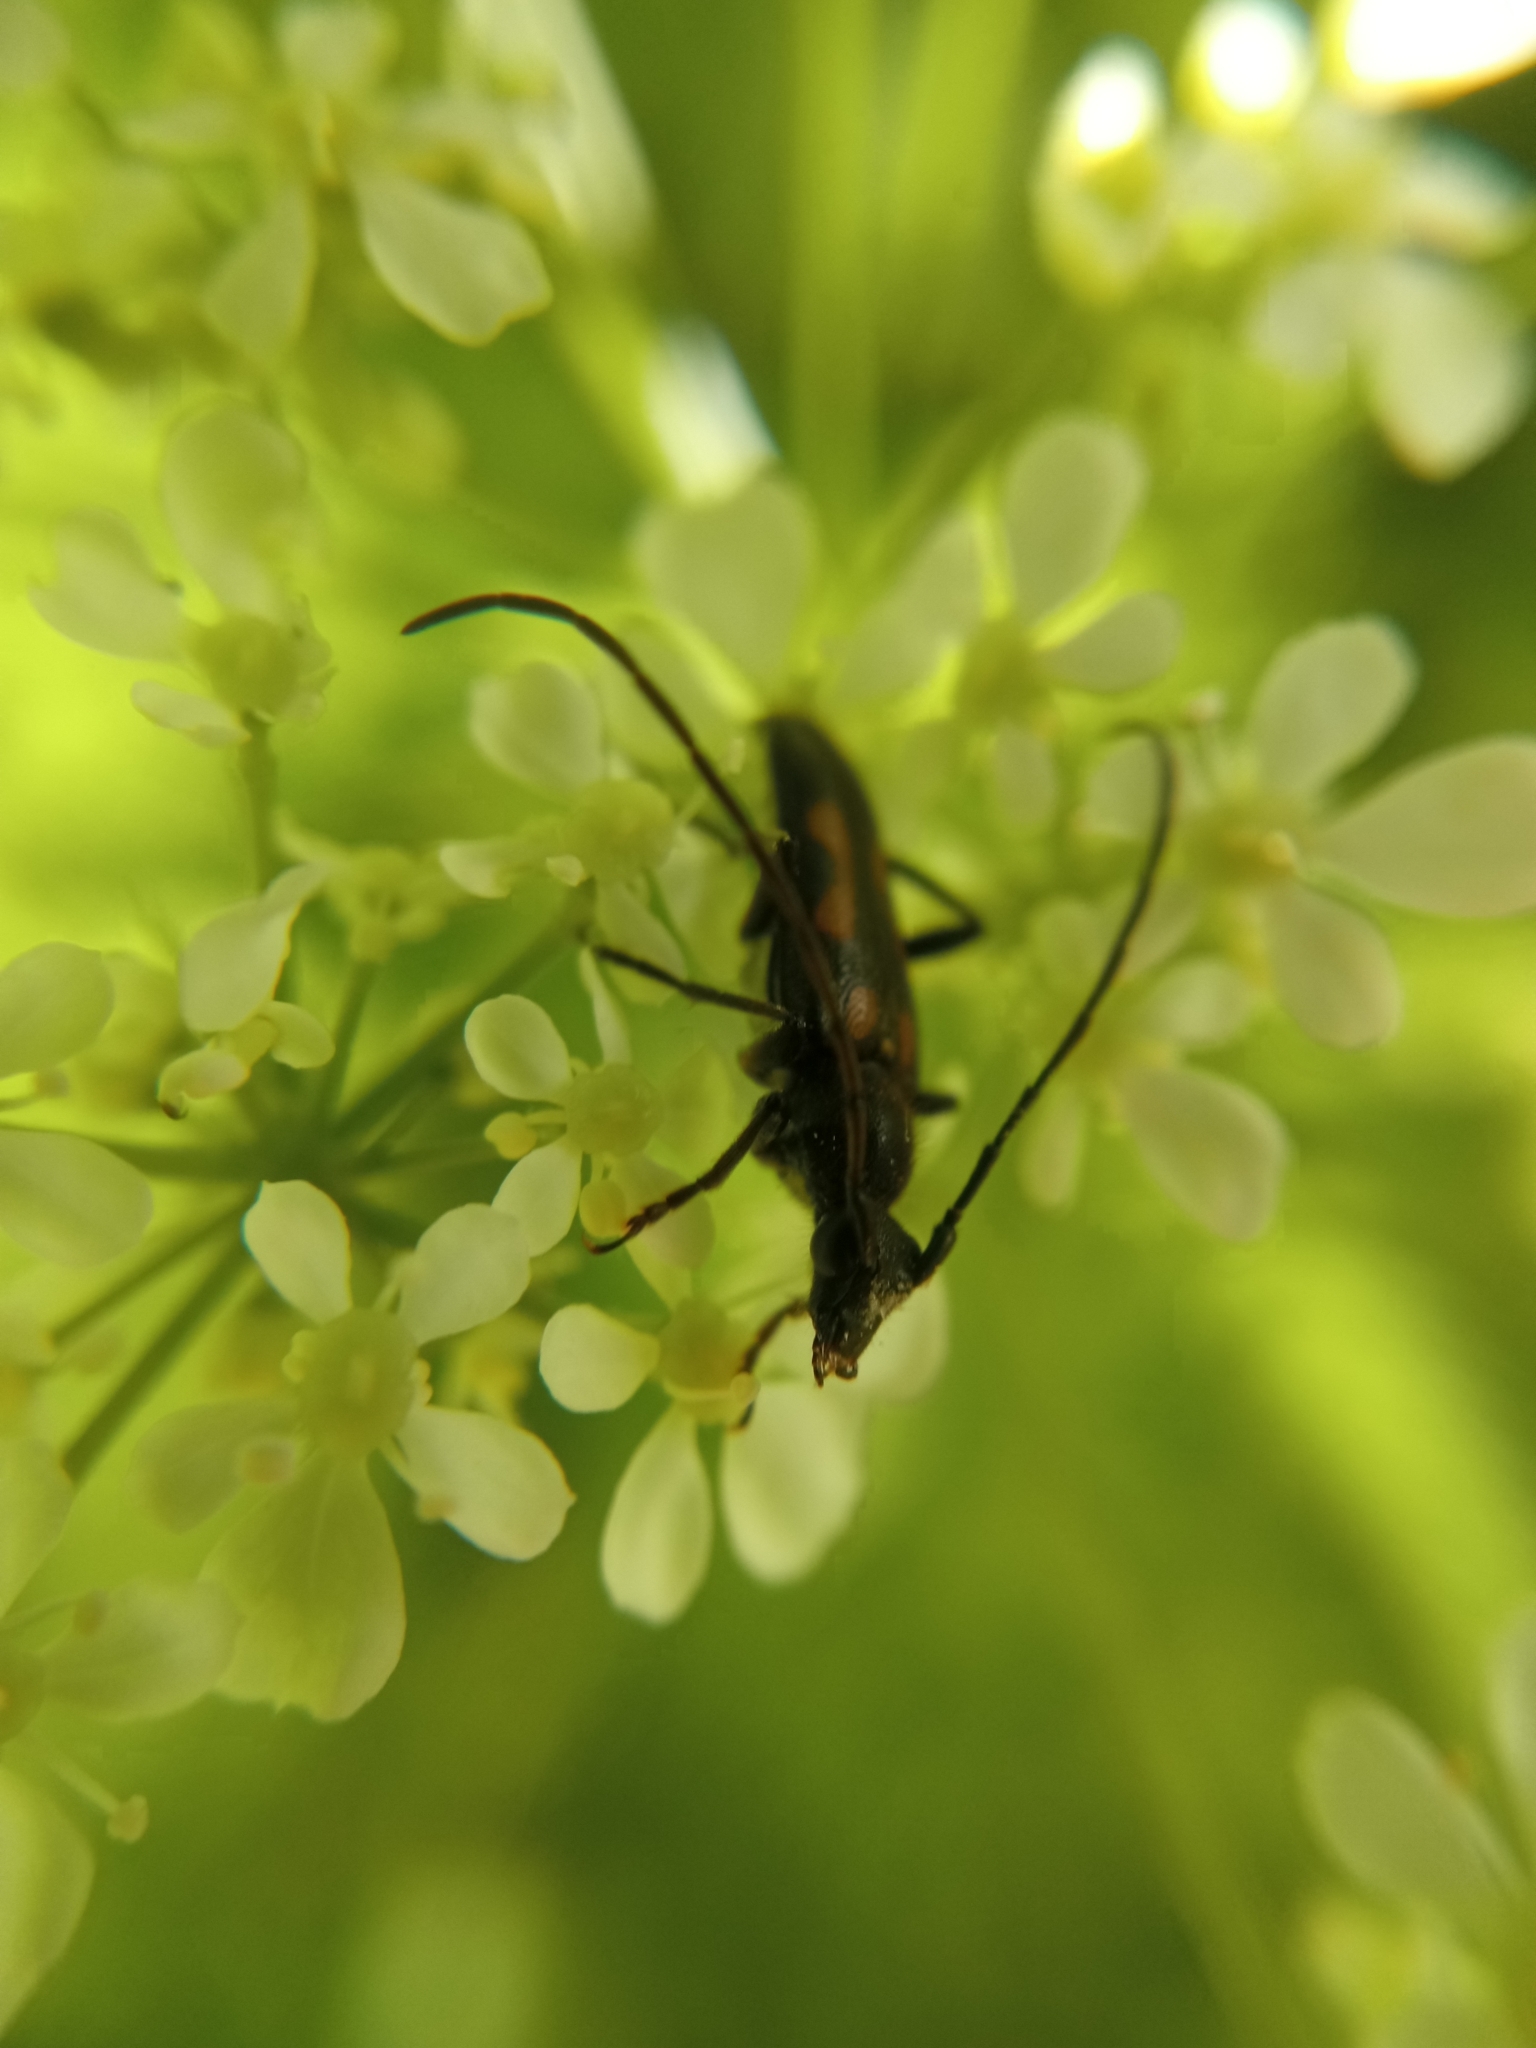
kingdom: Animalia
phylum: Arthropoda
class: Insecta
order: Coleoptera
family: Cerambycidae
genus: Anoplodera
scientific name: Anoplodera sexguttata
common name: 6 spotted longhorn
